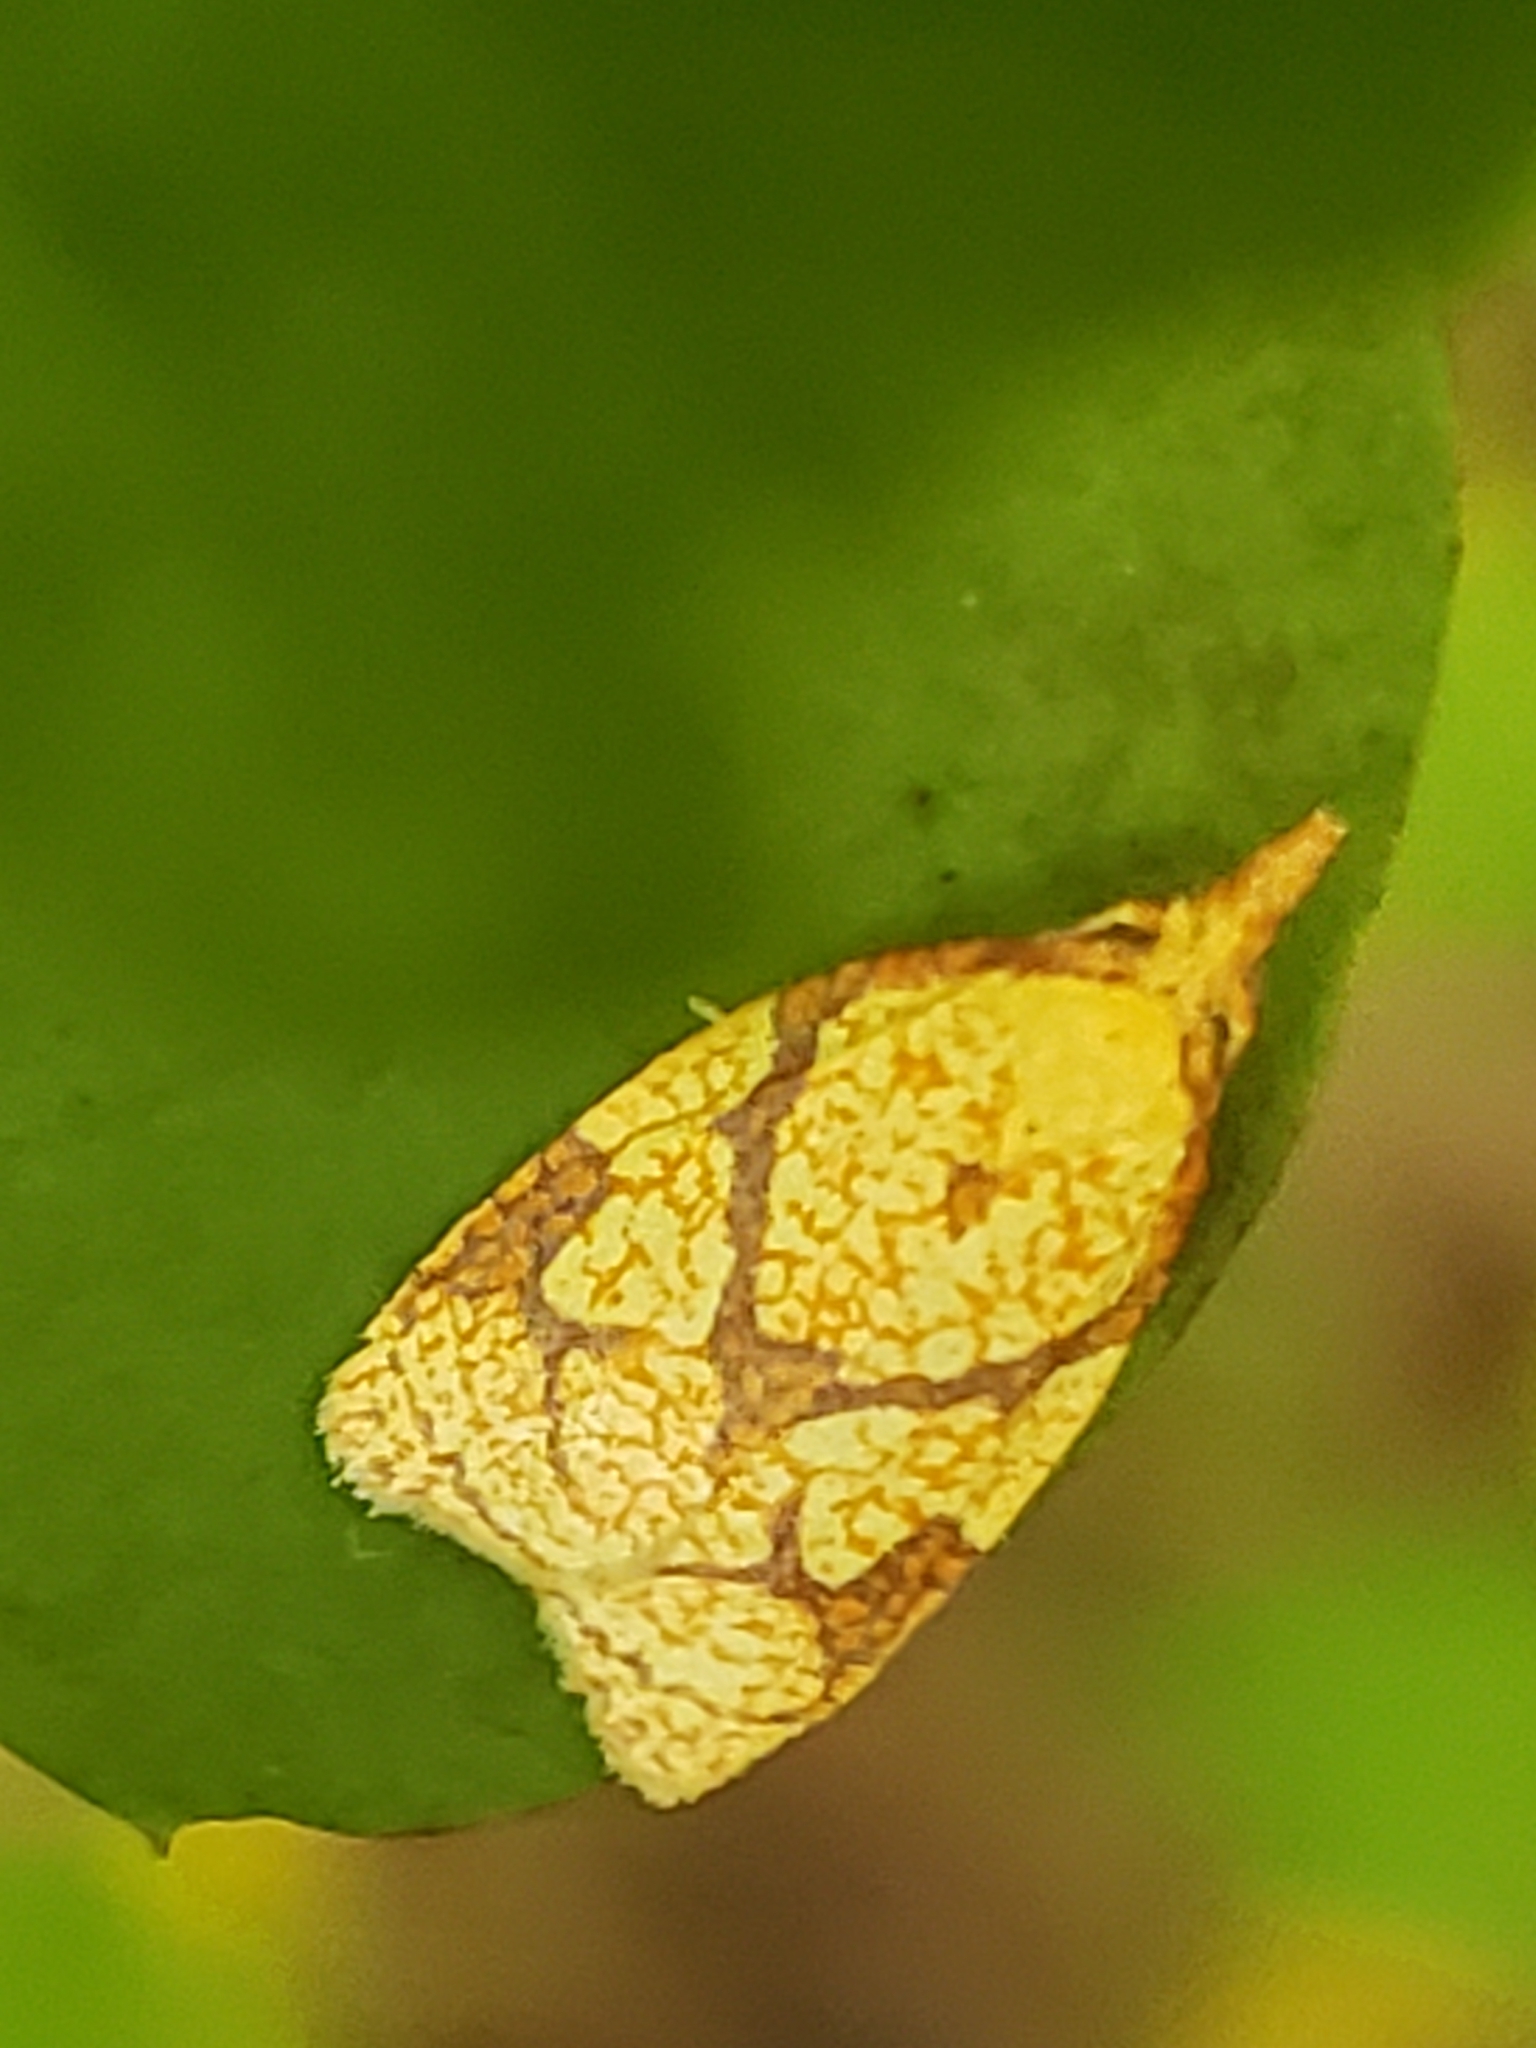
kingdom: Animalia
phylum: Arthropoda
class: Insecta
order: Lepidoptera
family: Tortricidae
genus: Cenopis
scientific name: Cenopis reticulatana
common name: Reticulated fruitworm moth
